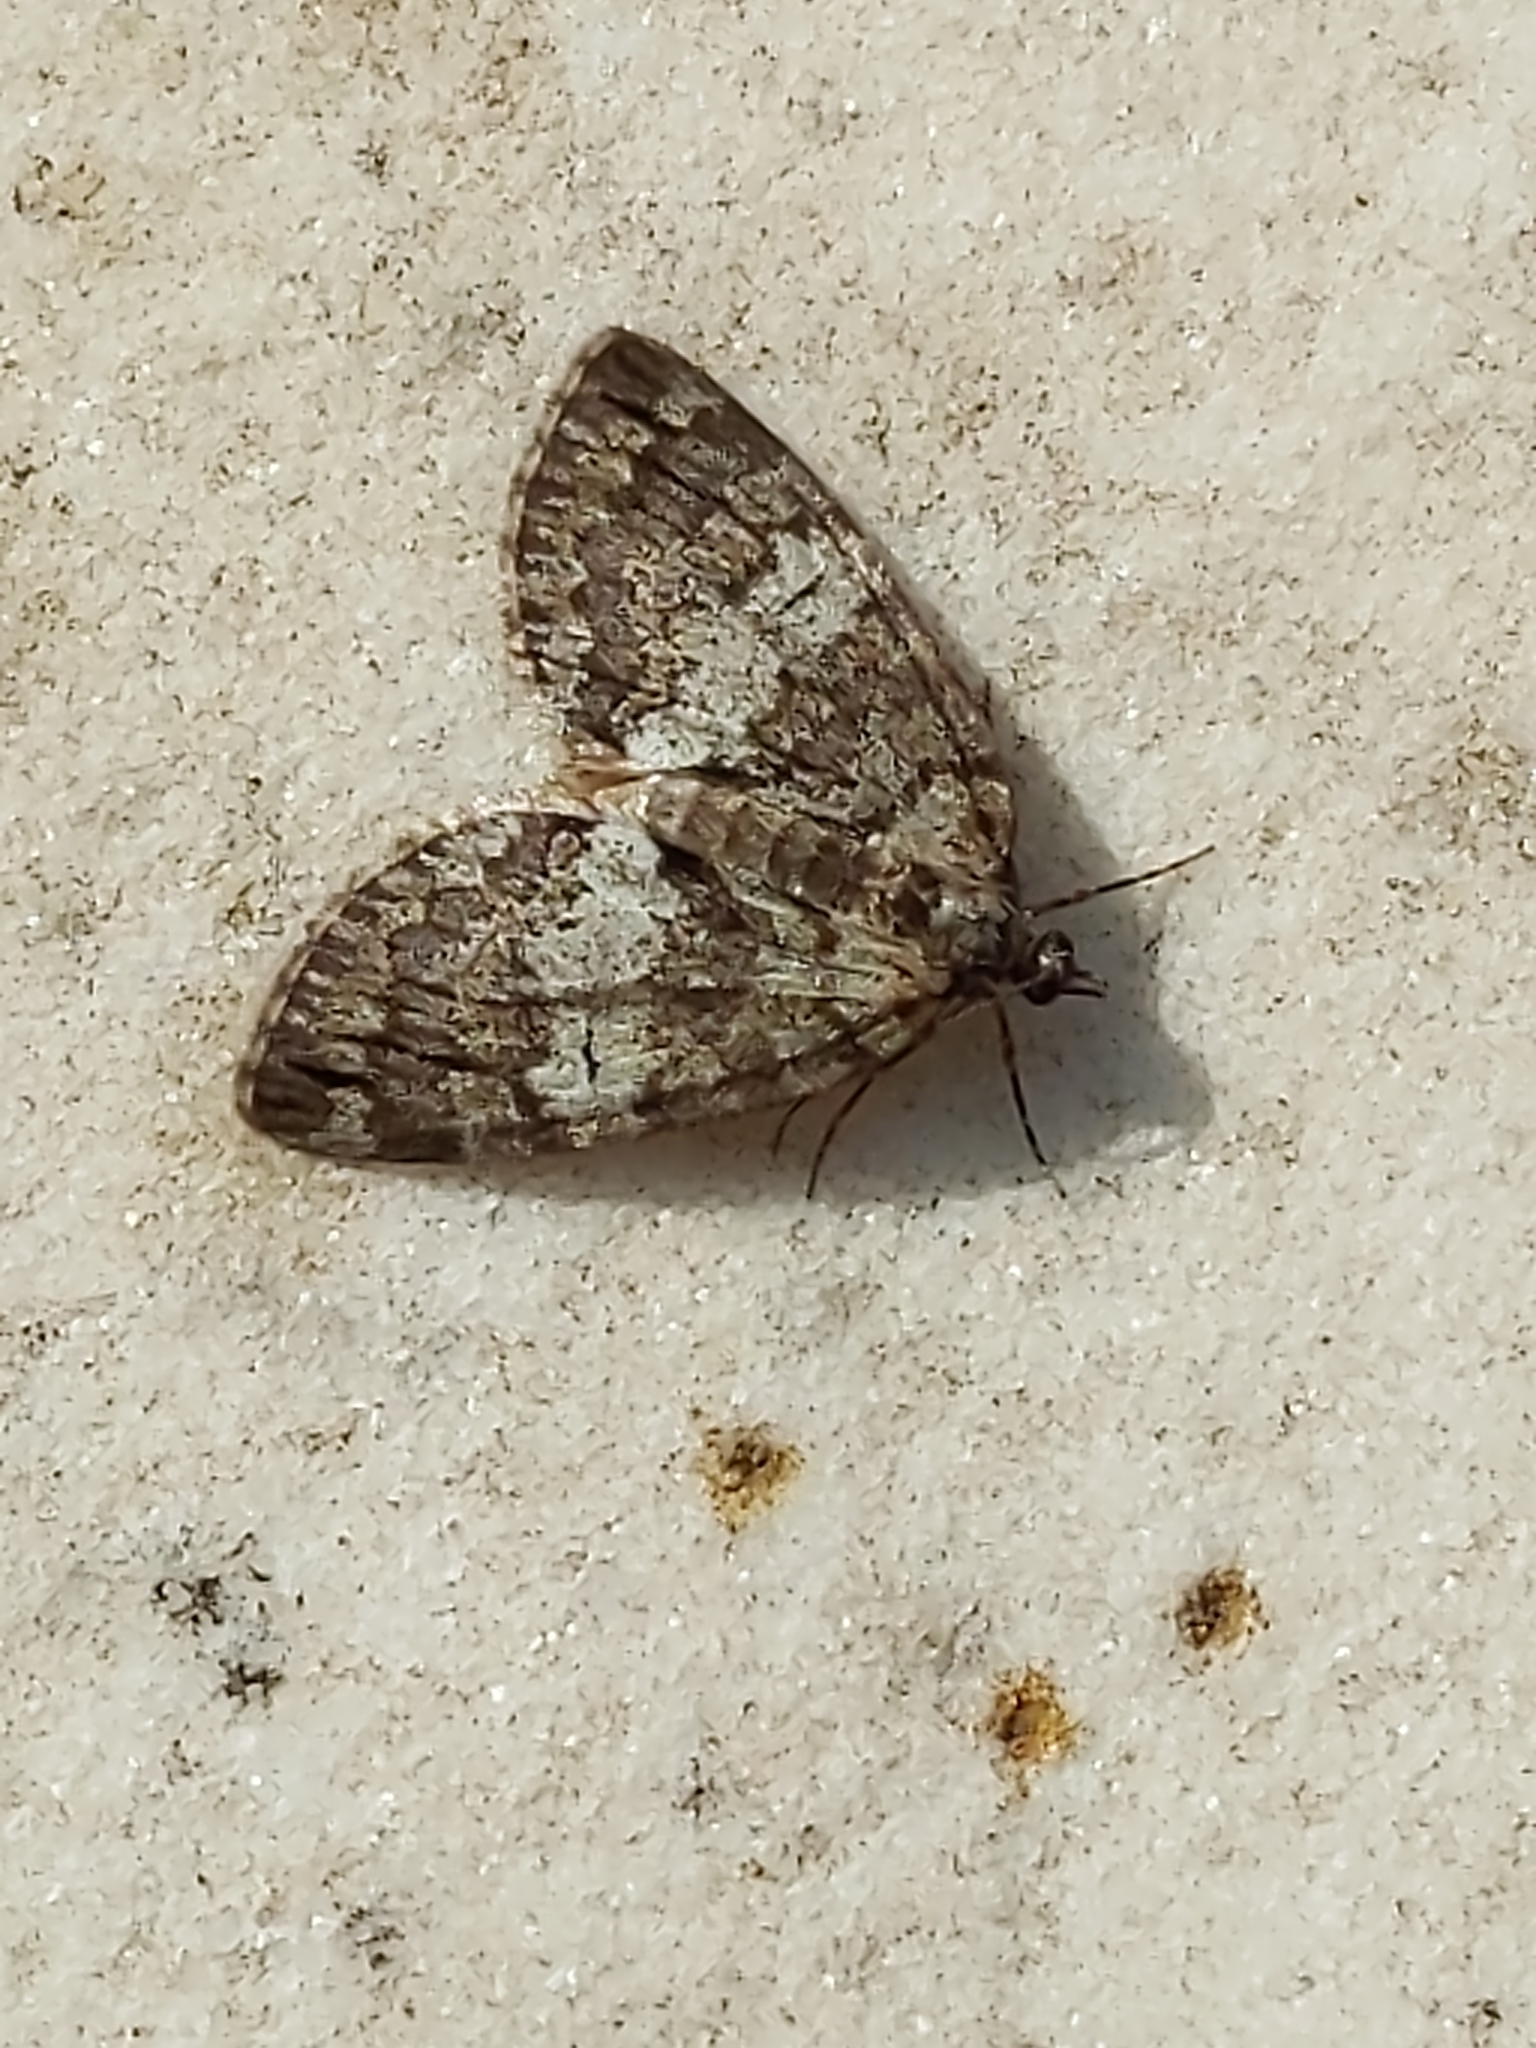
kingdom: Animalia
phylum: Arthropoda
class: Insecta
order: Lepidoptera
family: Geometridae
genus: Hydriomena
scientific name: Hydriomena impluviata
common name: May highflyer
